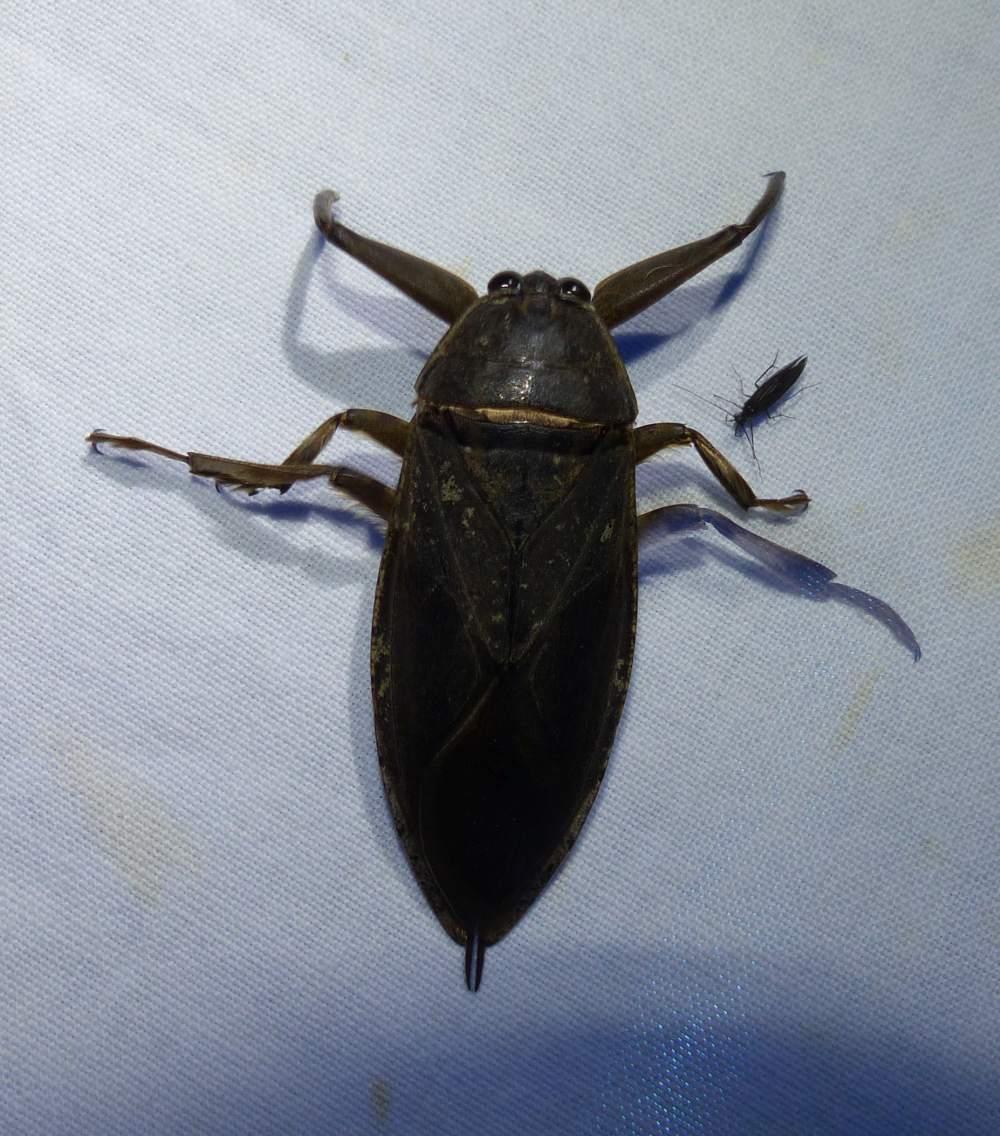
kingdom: Animalia
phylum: Arthropoda
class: Insecta
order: Hemiptera
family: Belostomatidae
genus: Lethocerus
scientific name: Lethocerus americanus
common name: Giant water bug
